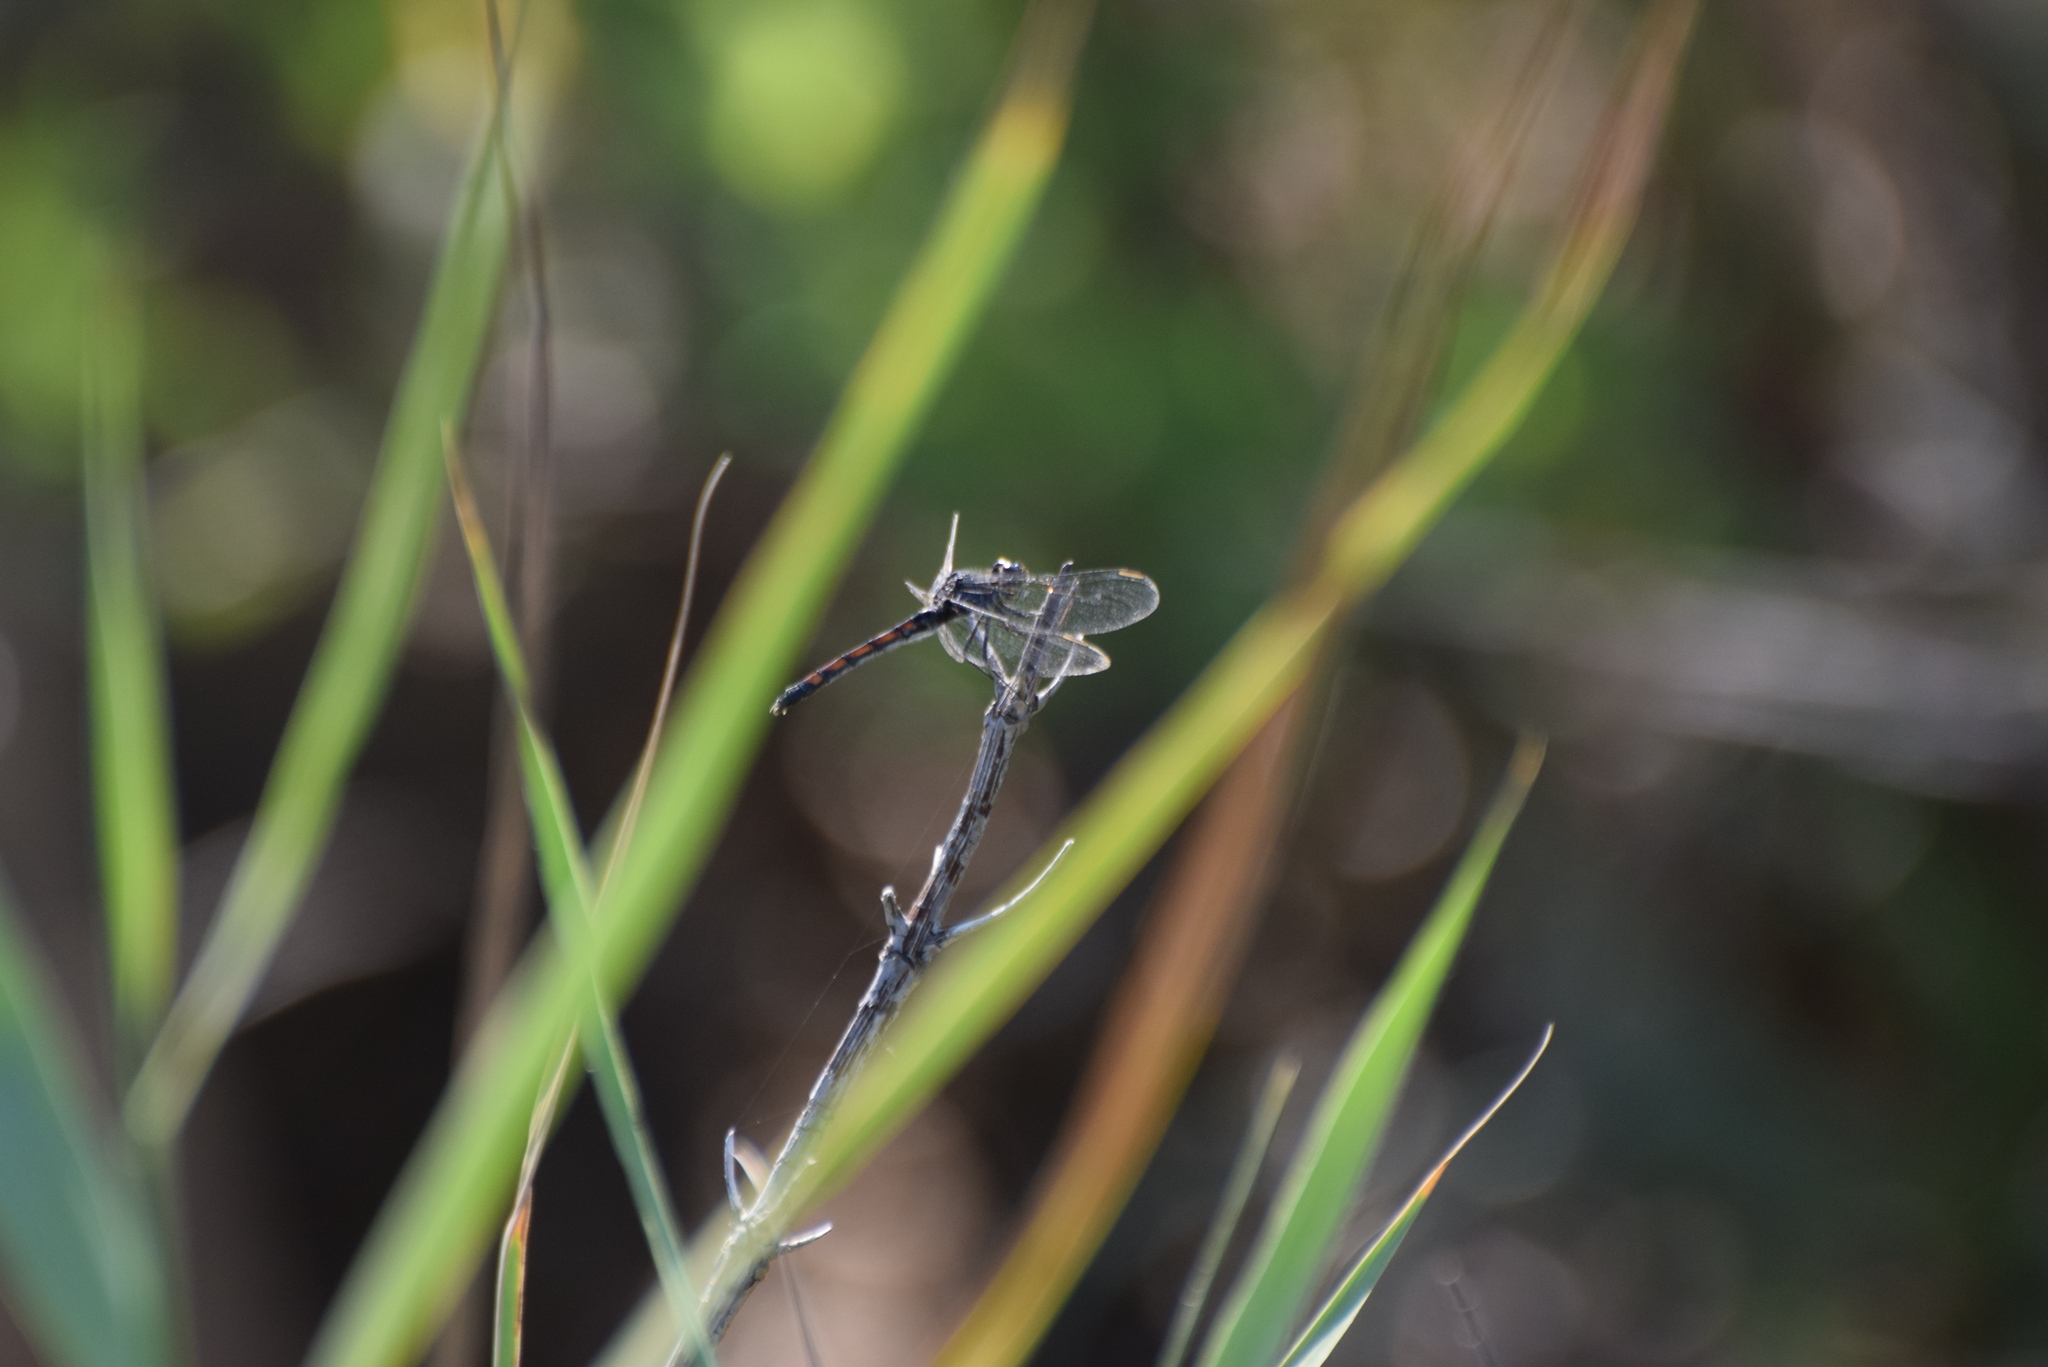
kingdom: Animalia
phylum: Arthropoda
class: Insecta
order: Odonata
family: Libellulidae
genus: Erythrodiplax
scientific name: Erythrodiplax berenice
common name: Seaside dragonlet
